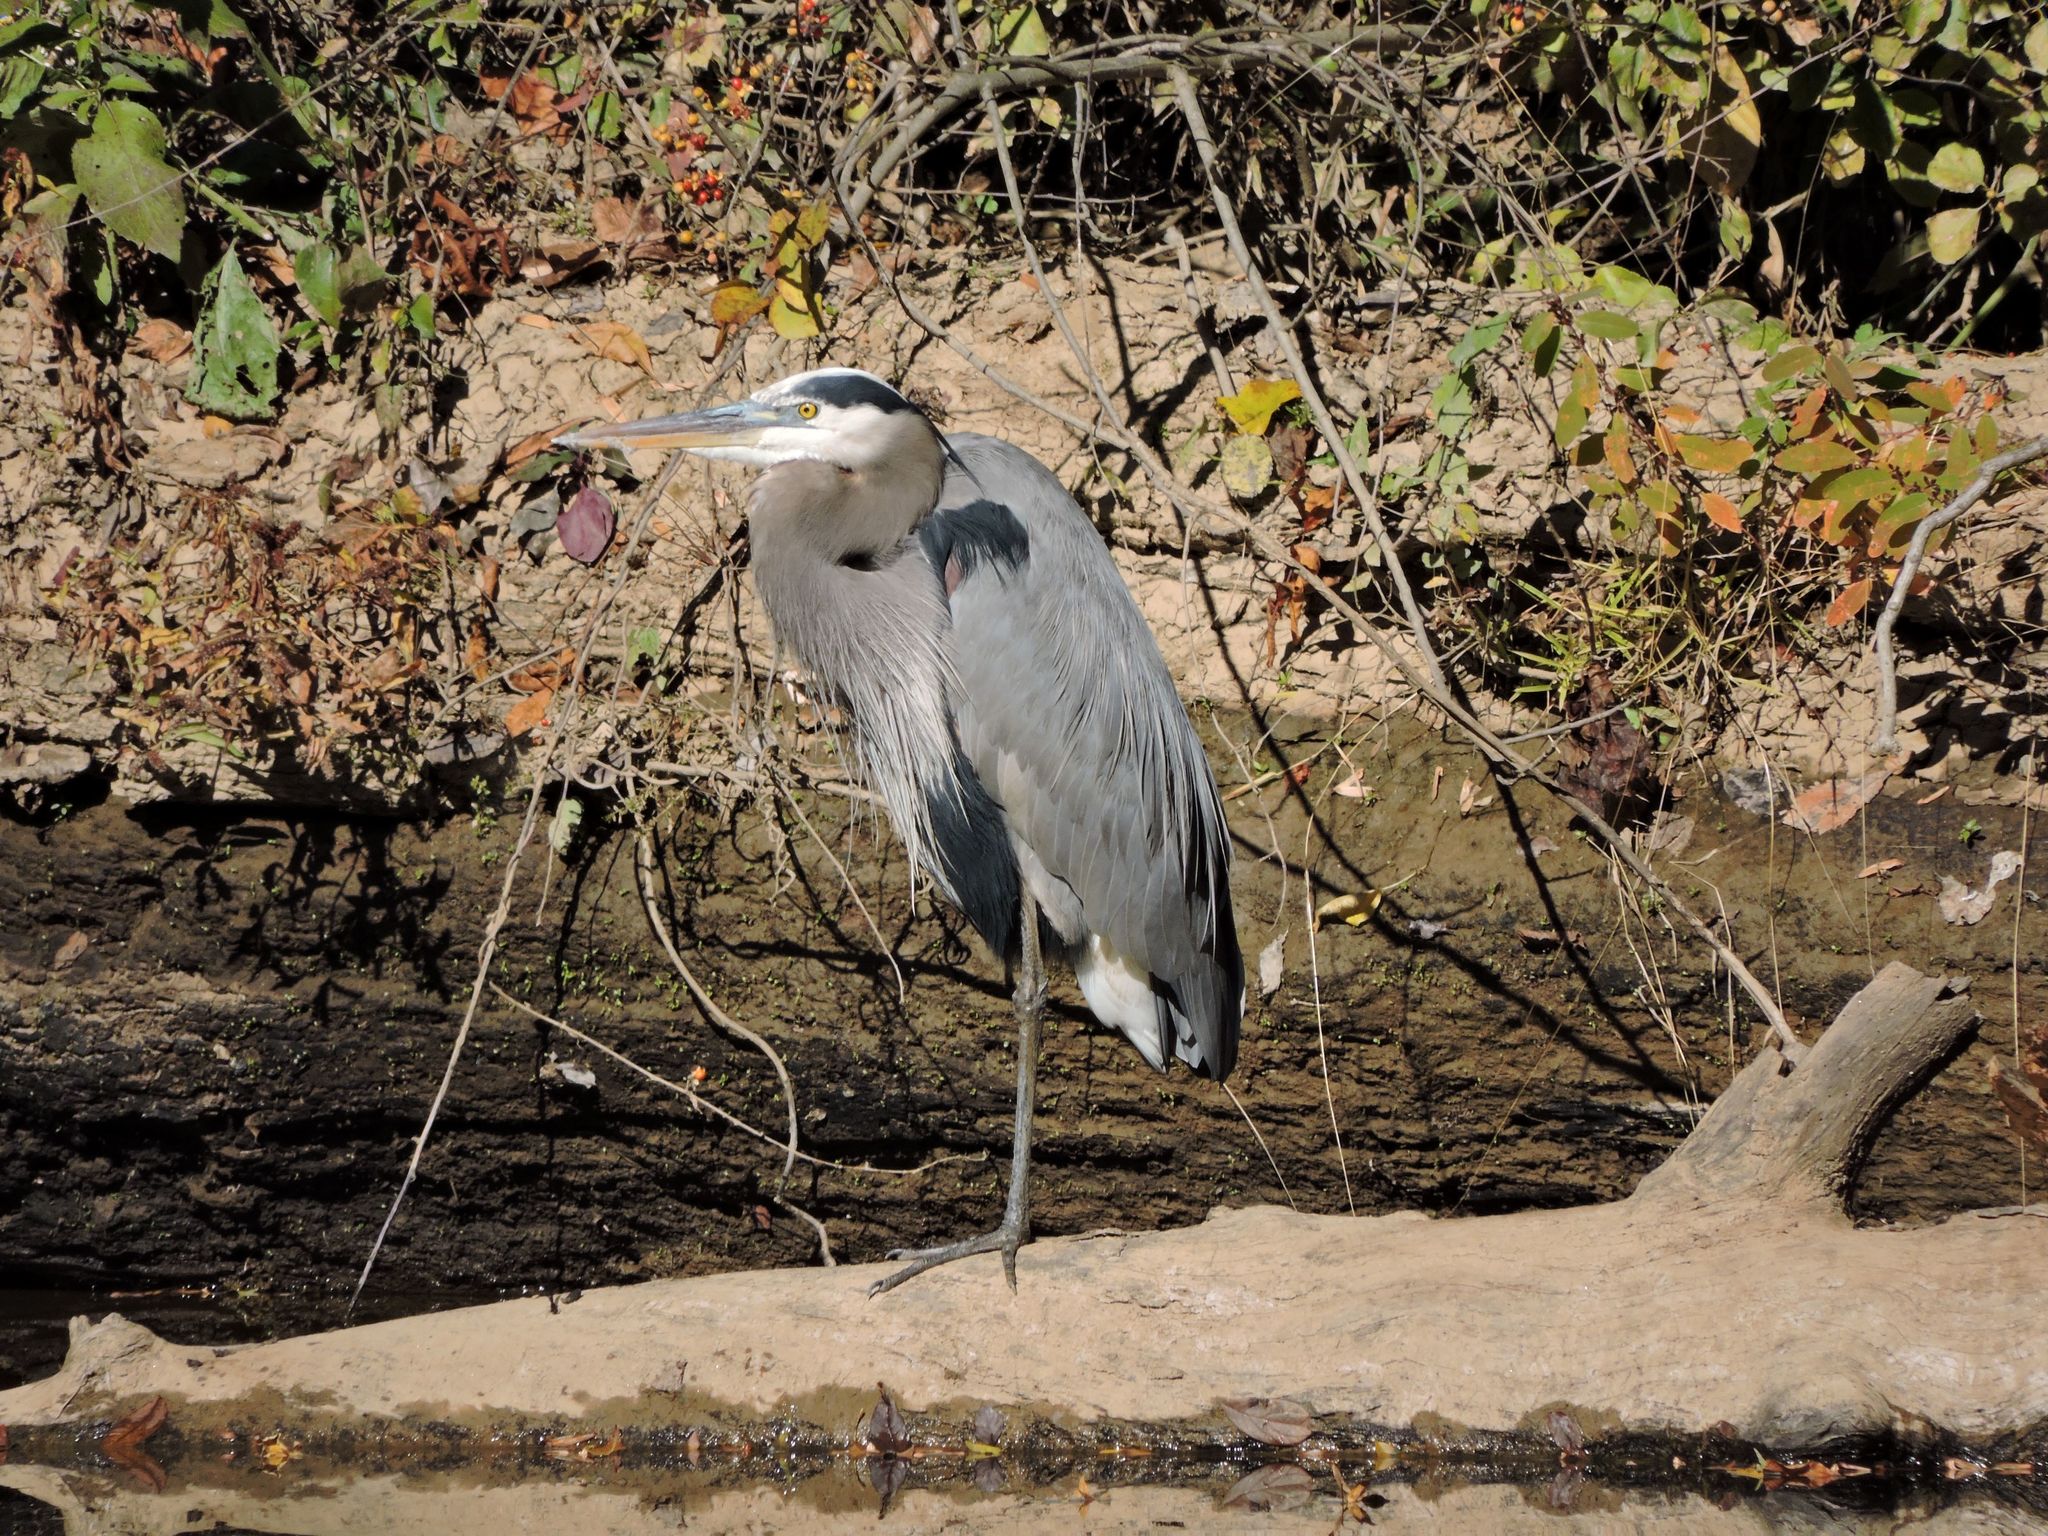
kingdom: Animalia
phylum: Chordata
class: Aves
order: Pelecaniformes
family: Ardeidae
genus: Ardea
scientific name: Ardea herodias
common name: Great blue heron
